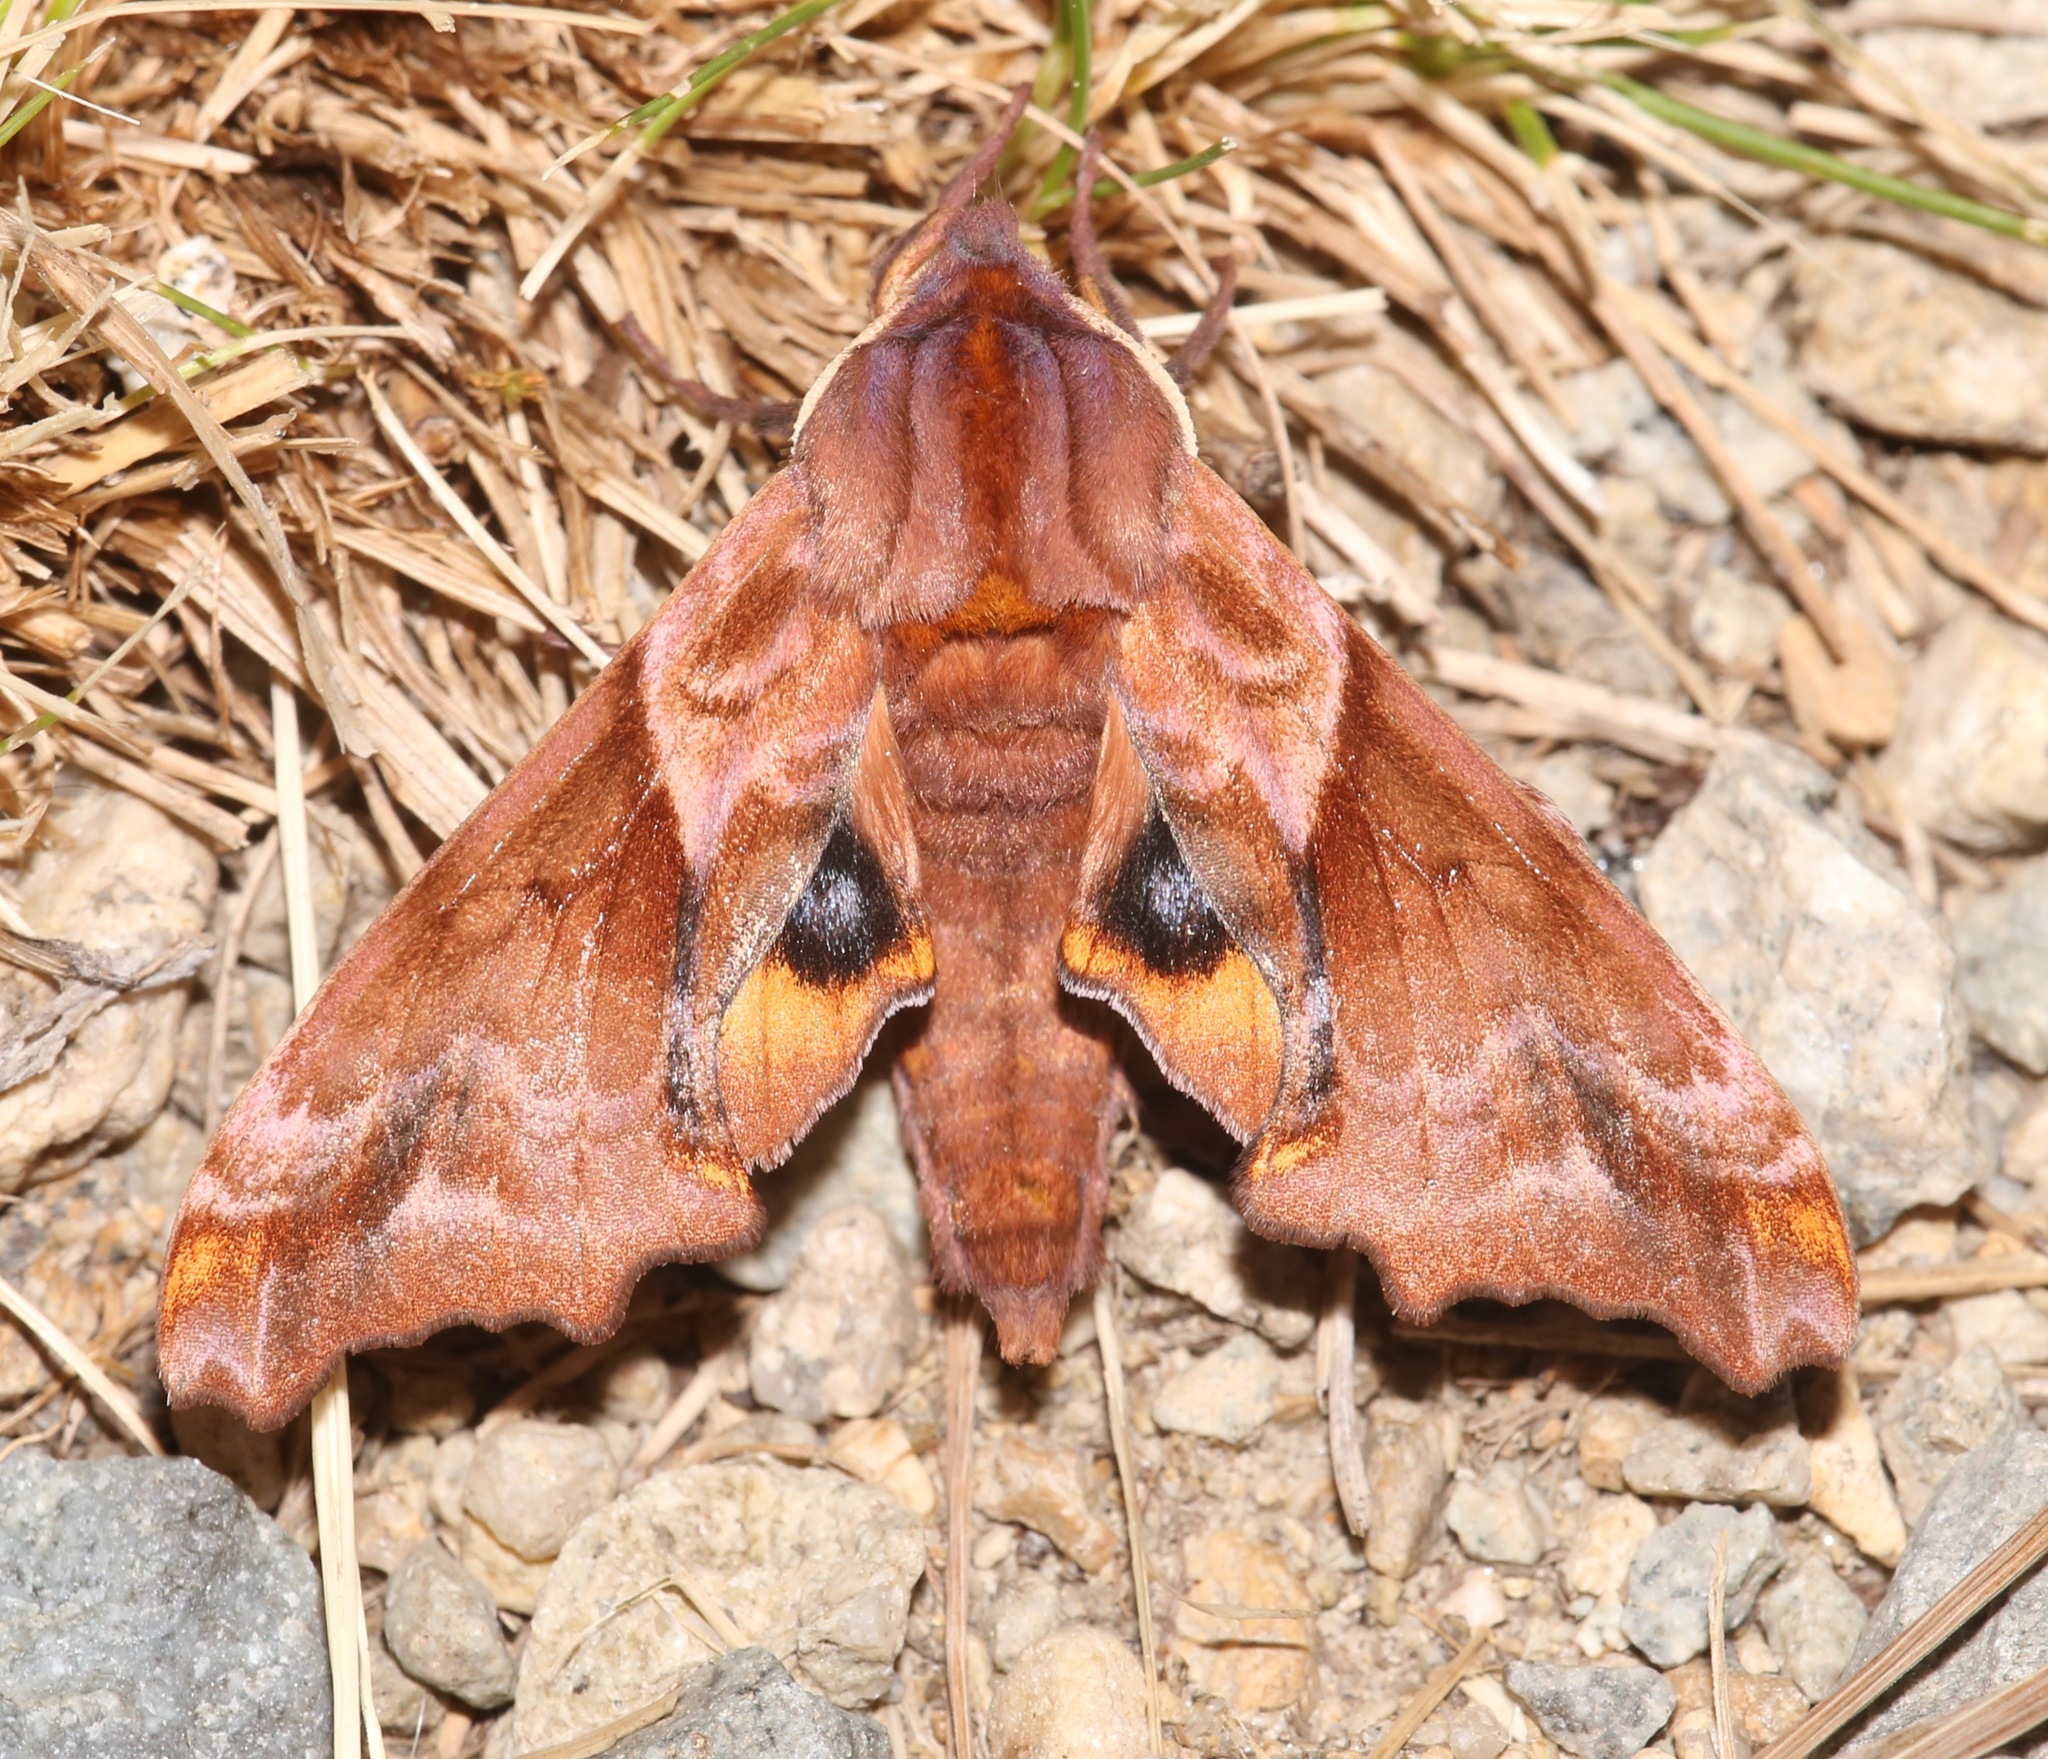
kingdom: Animalia
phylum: Arthropoda
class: Insecta
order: Lepidoptera
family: Sphingidae
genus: Paonias
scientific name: Paonias myops
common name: Small-eyed sphinx
